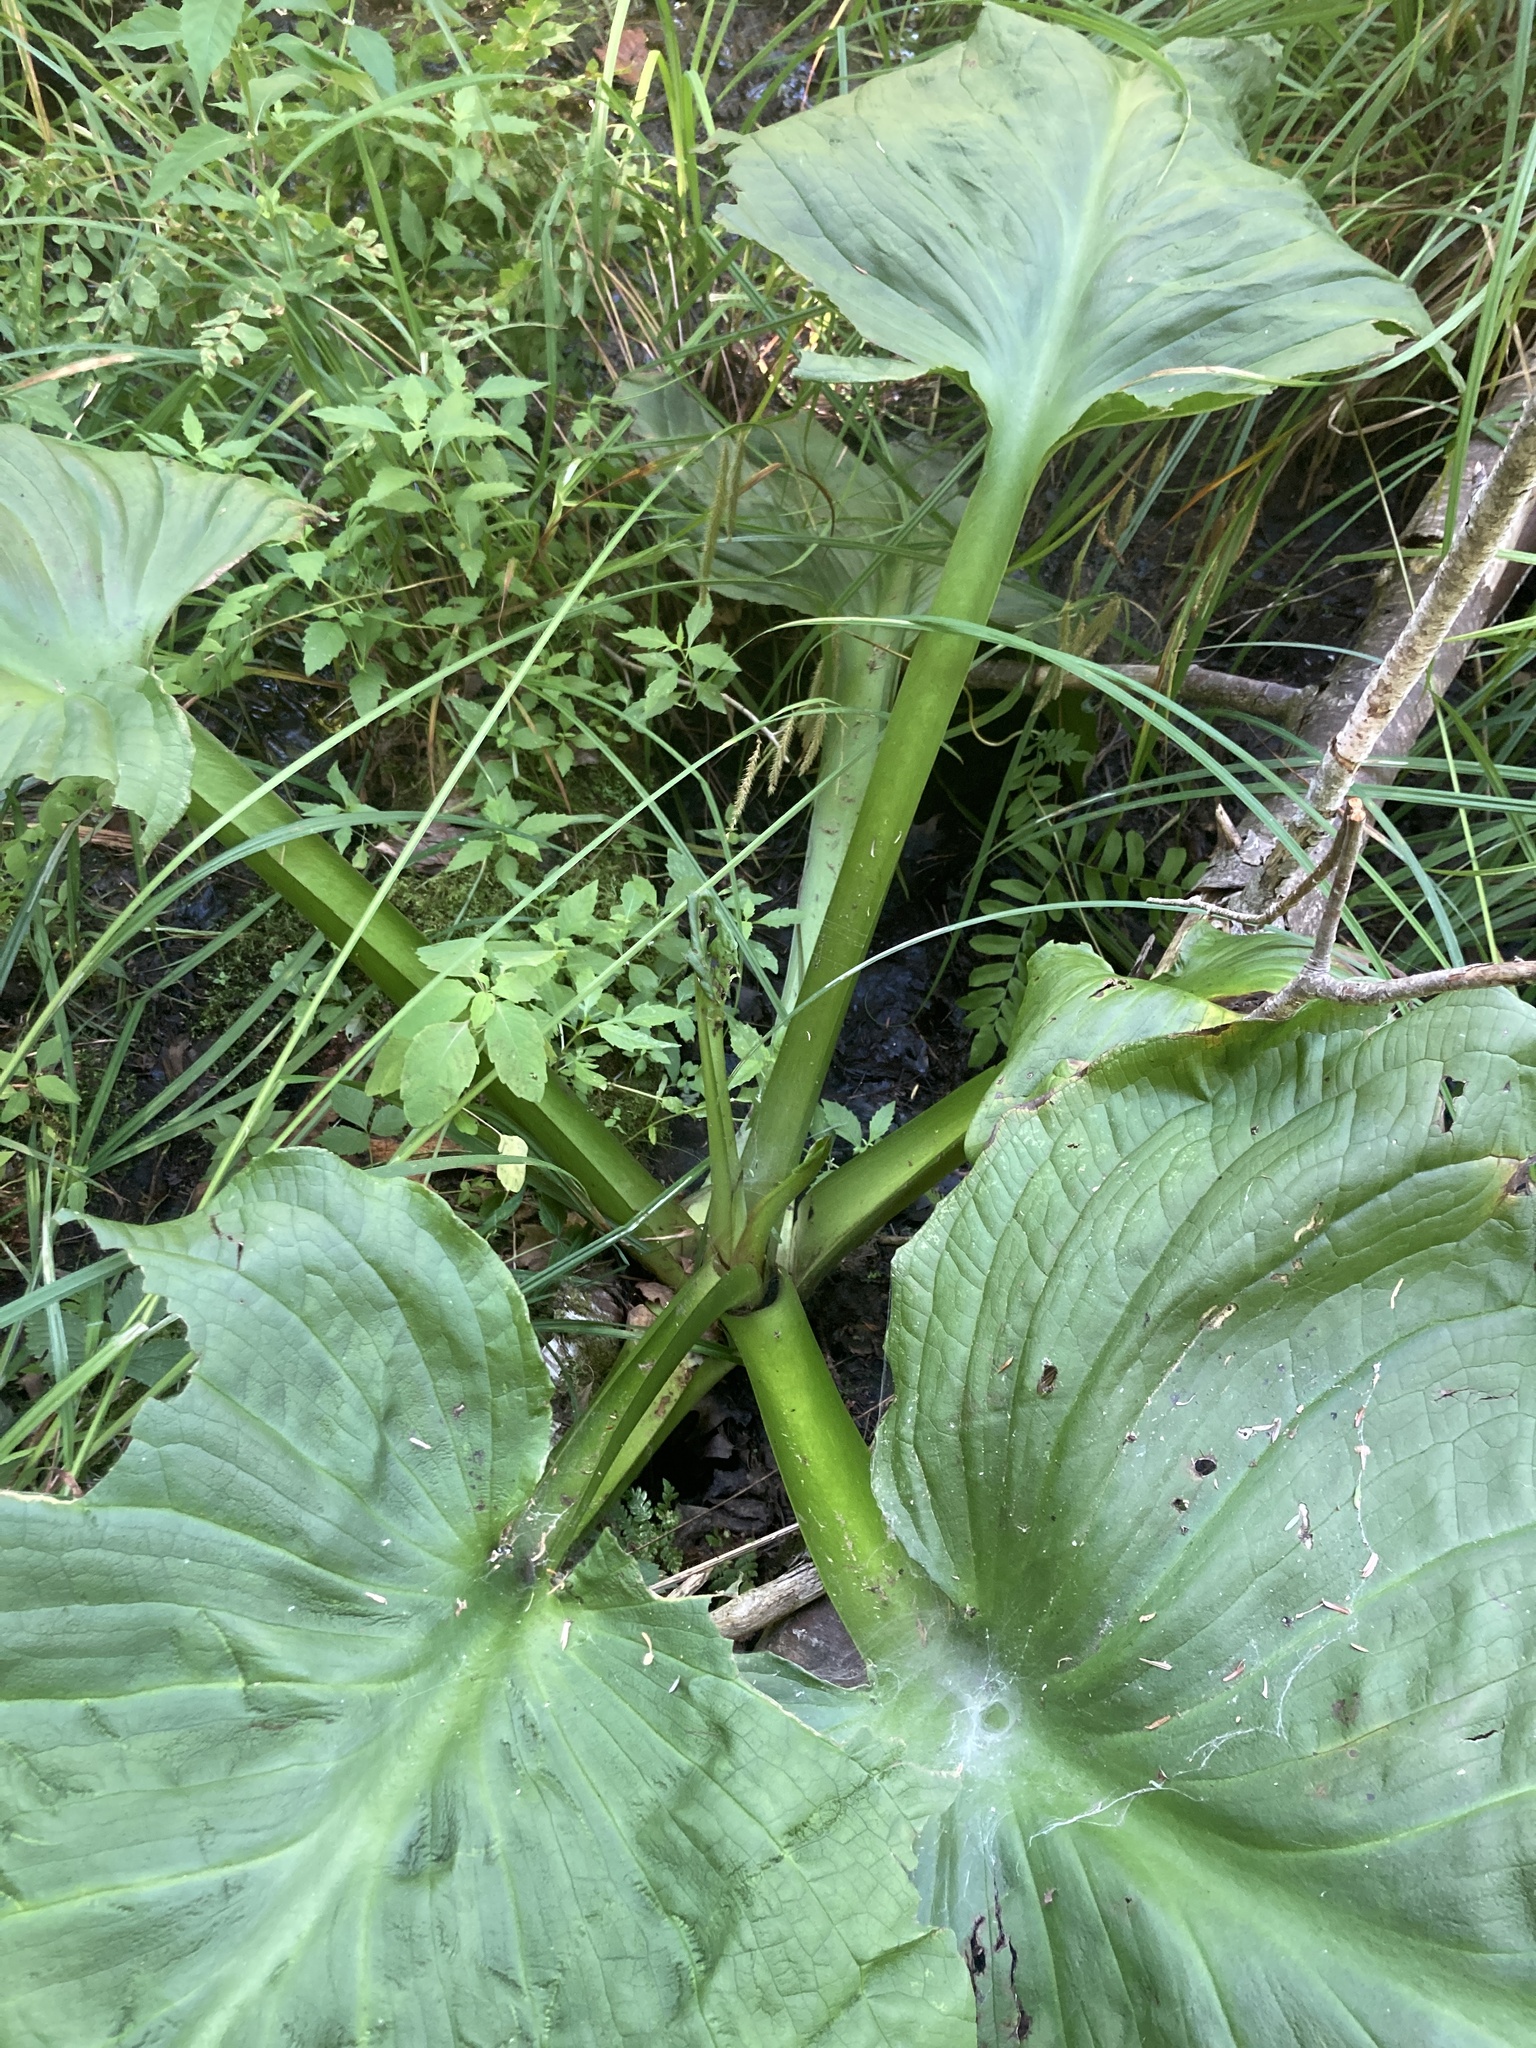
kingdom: Plantae
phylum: Tracheophyta
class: Liliopsida
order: Alismatales
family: Araceae
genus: Symplocarpus
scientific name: Symplocarpus foetidus
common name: Eastern skunk cabbage
